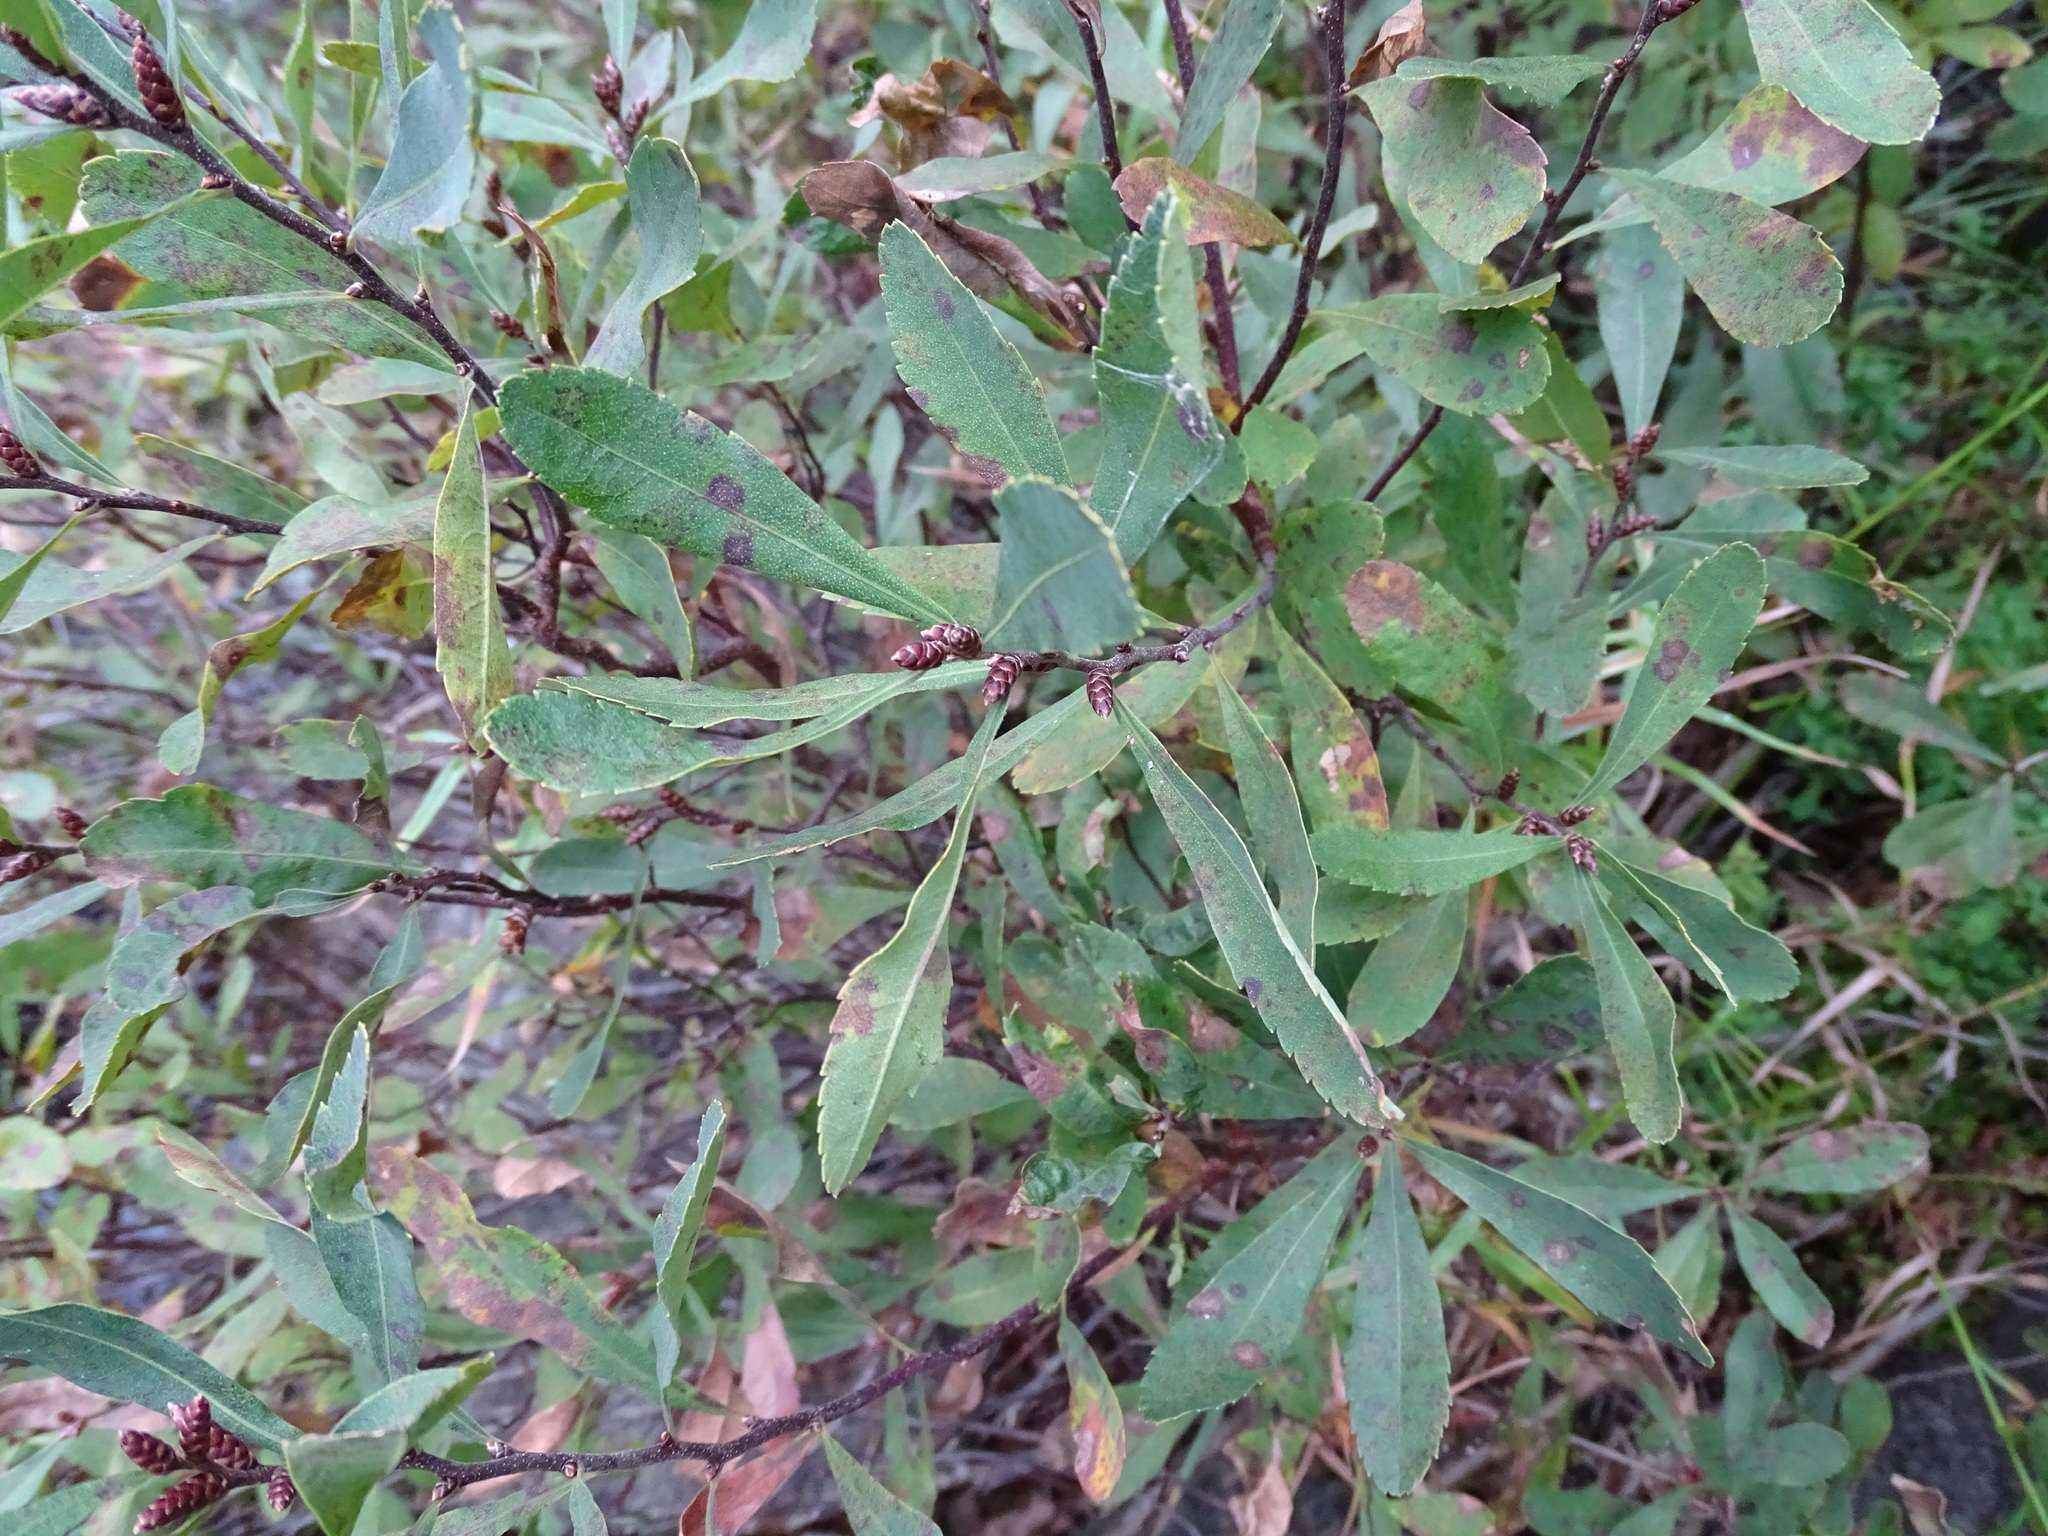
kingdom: Plantae
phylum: Tracheophyta
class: Magnoliopsida
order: Fagales
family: Myricaceae
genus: Myrica
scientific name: Myrica gale
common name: Sweet gale
